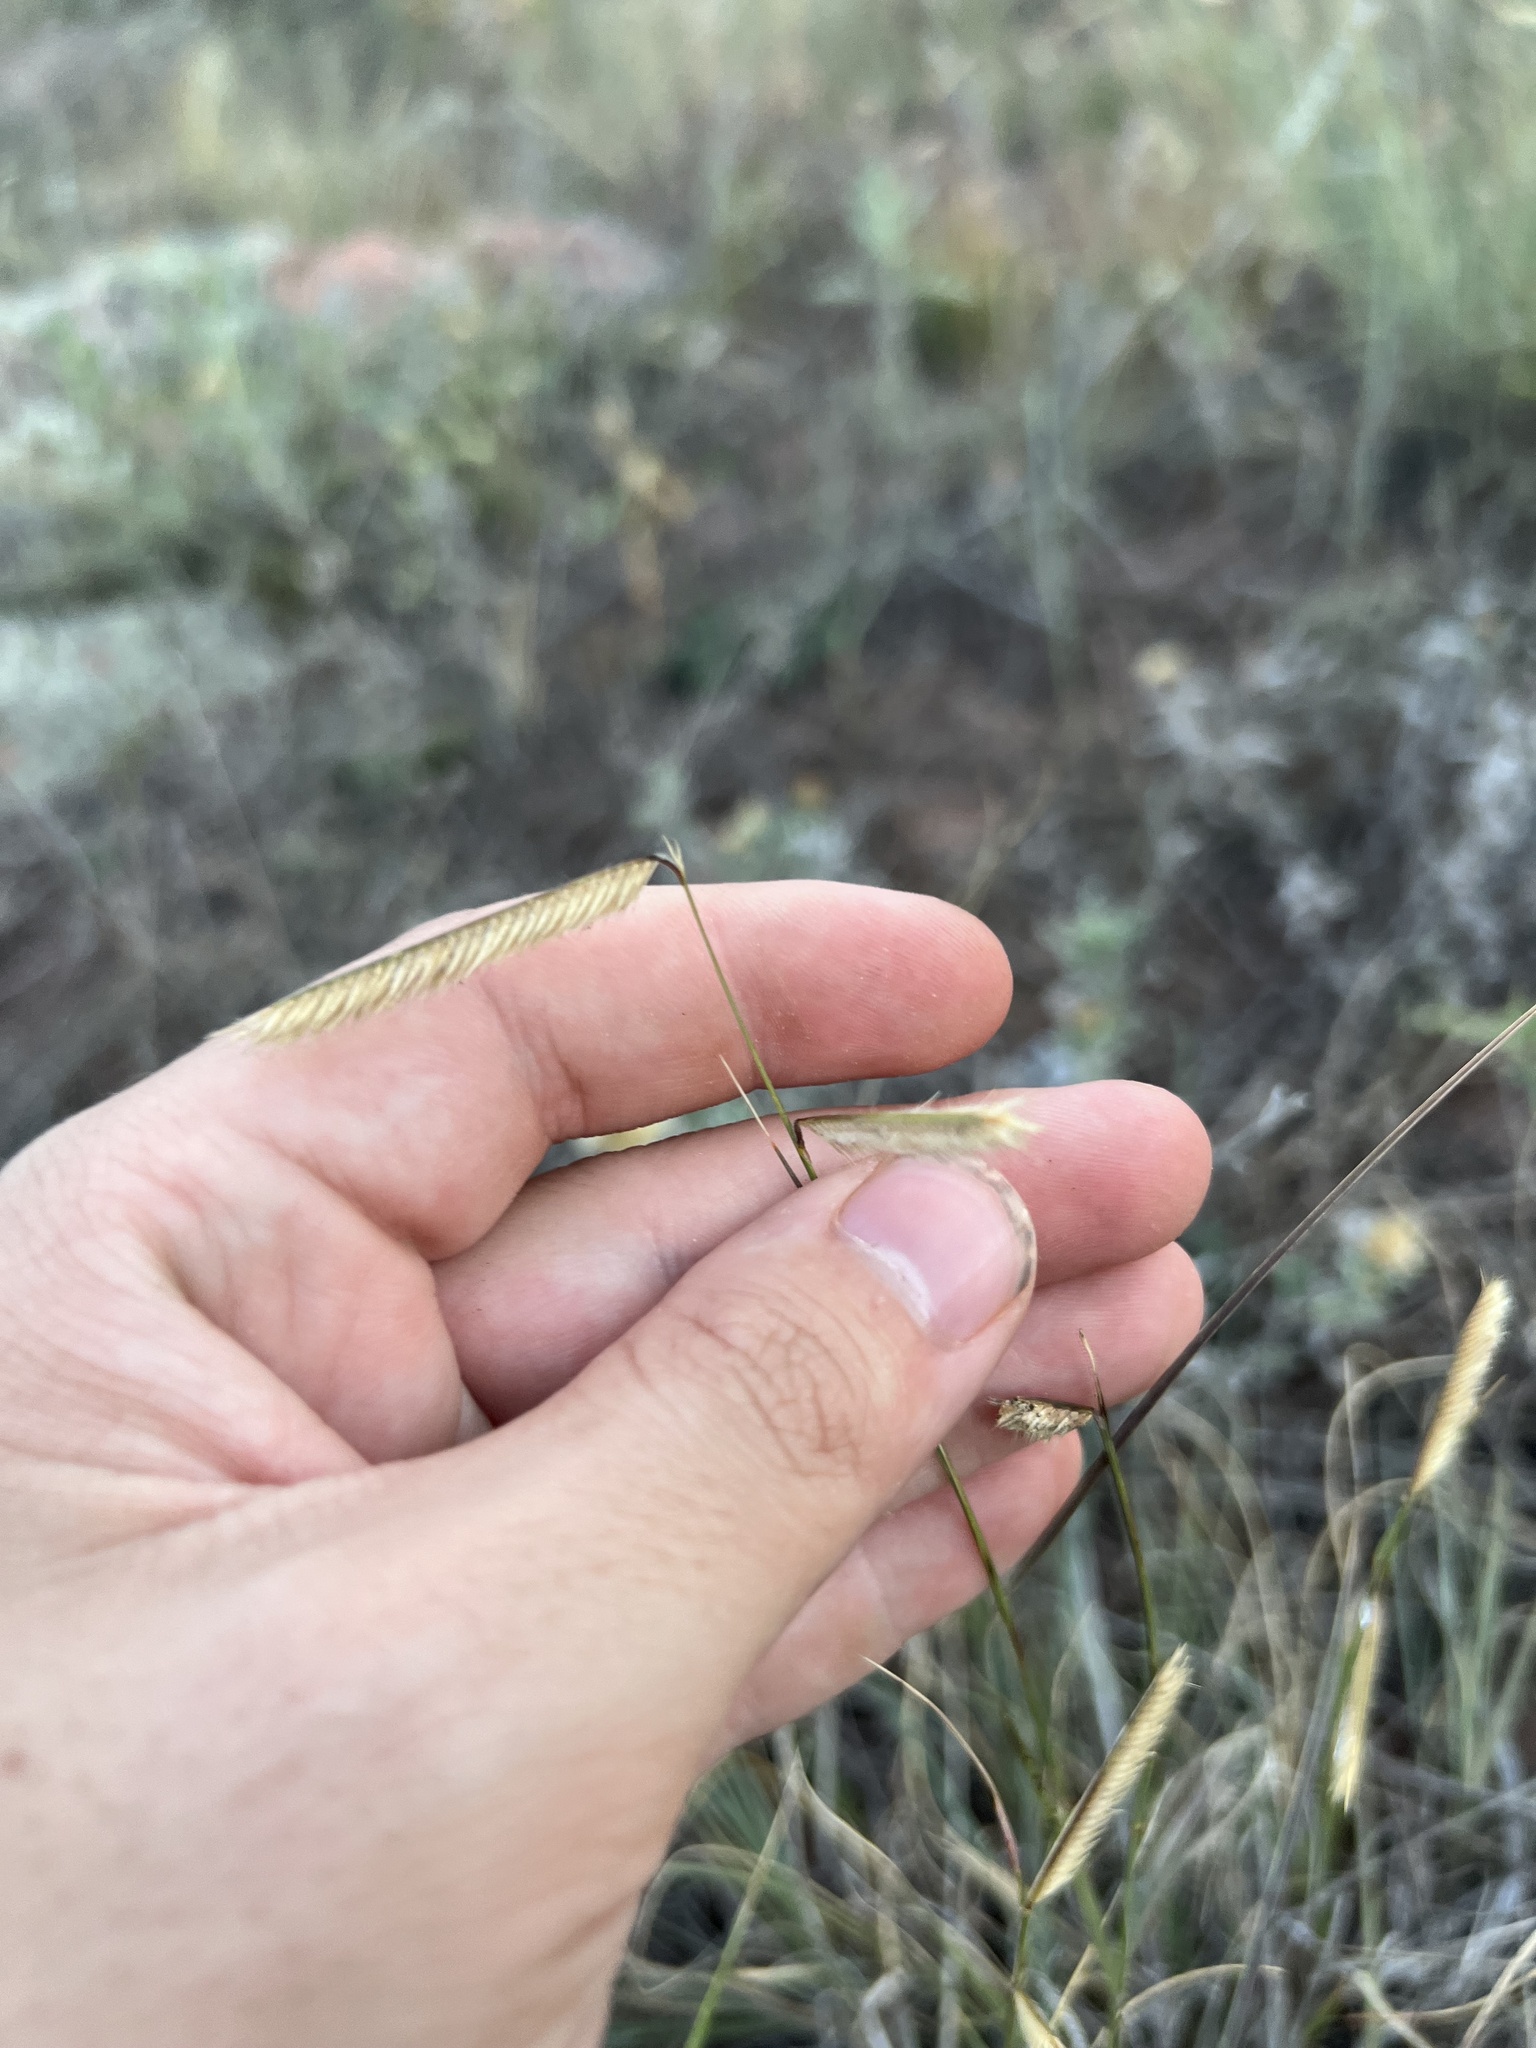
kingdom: Plantae
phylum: Tracheophyta
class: Liliopsida
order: Poales
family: Poaceae
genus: Bouteloua
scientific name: Bouteloua gracilis
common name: Blue grama
